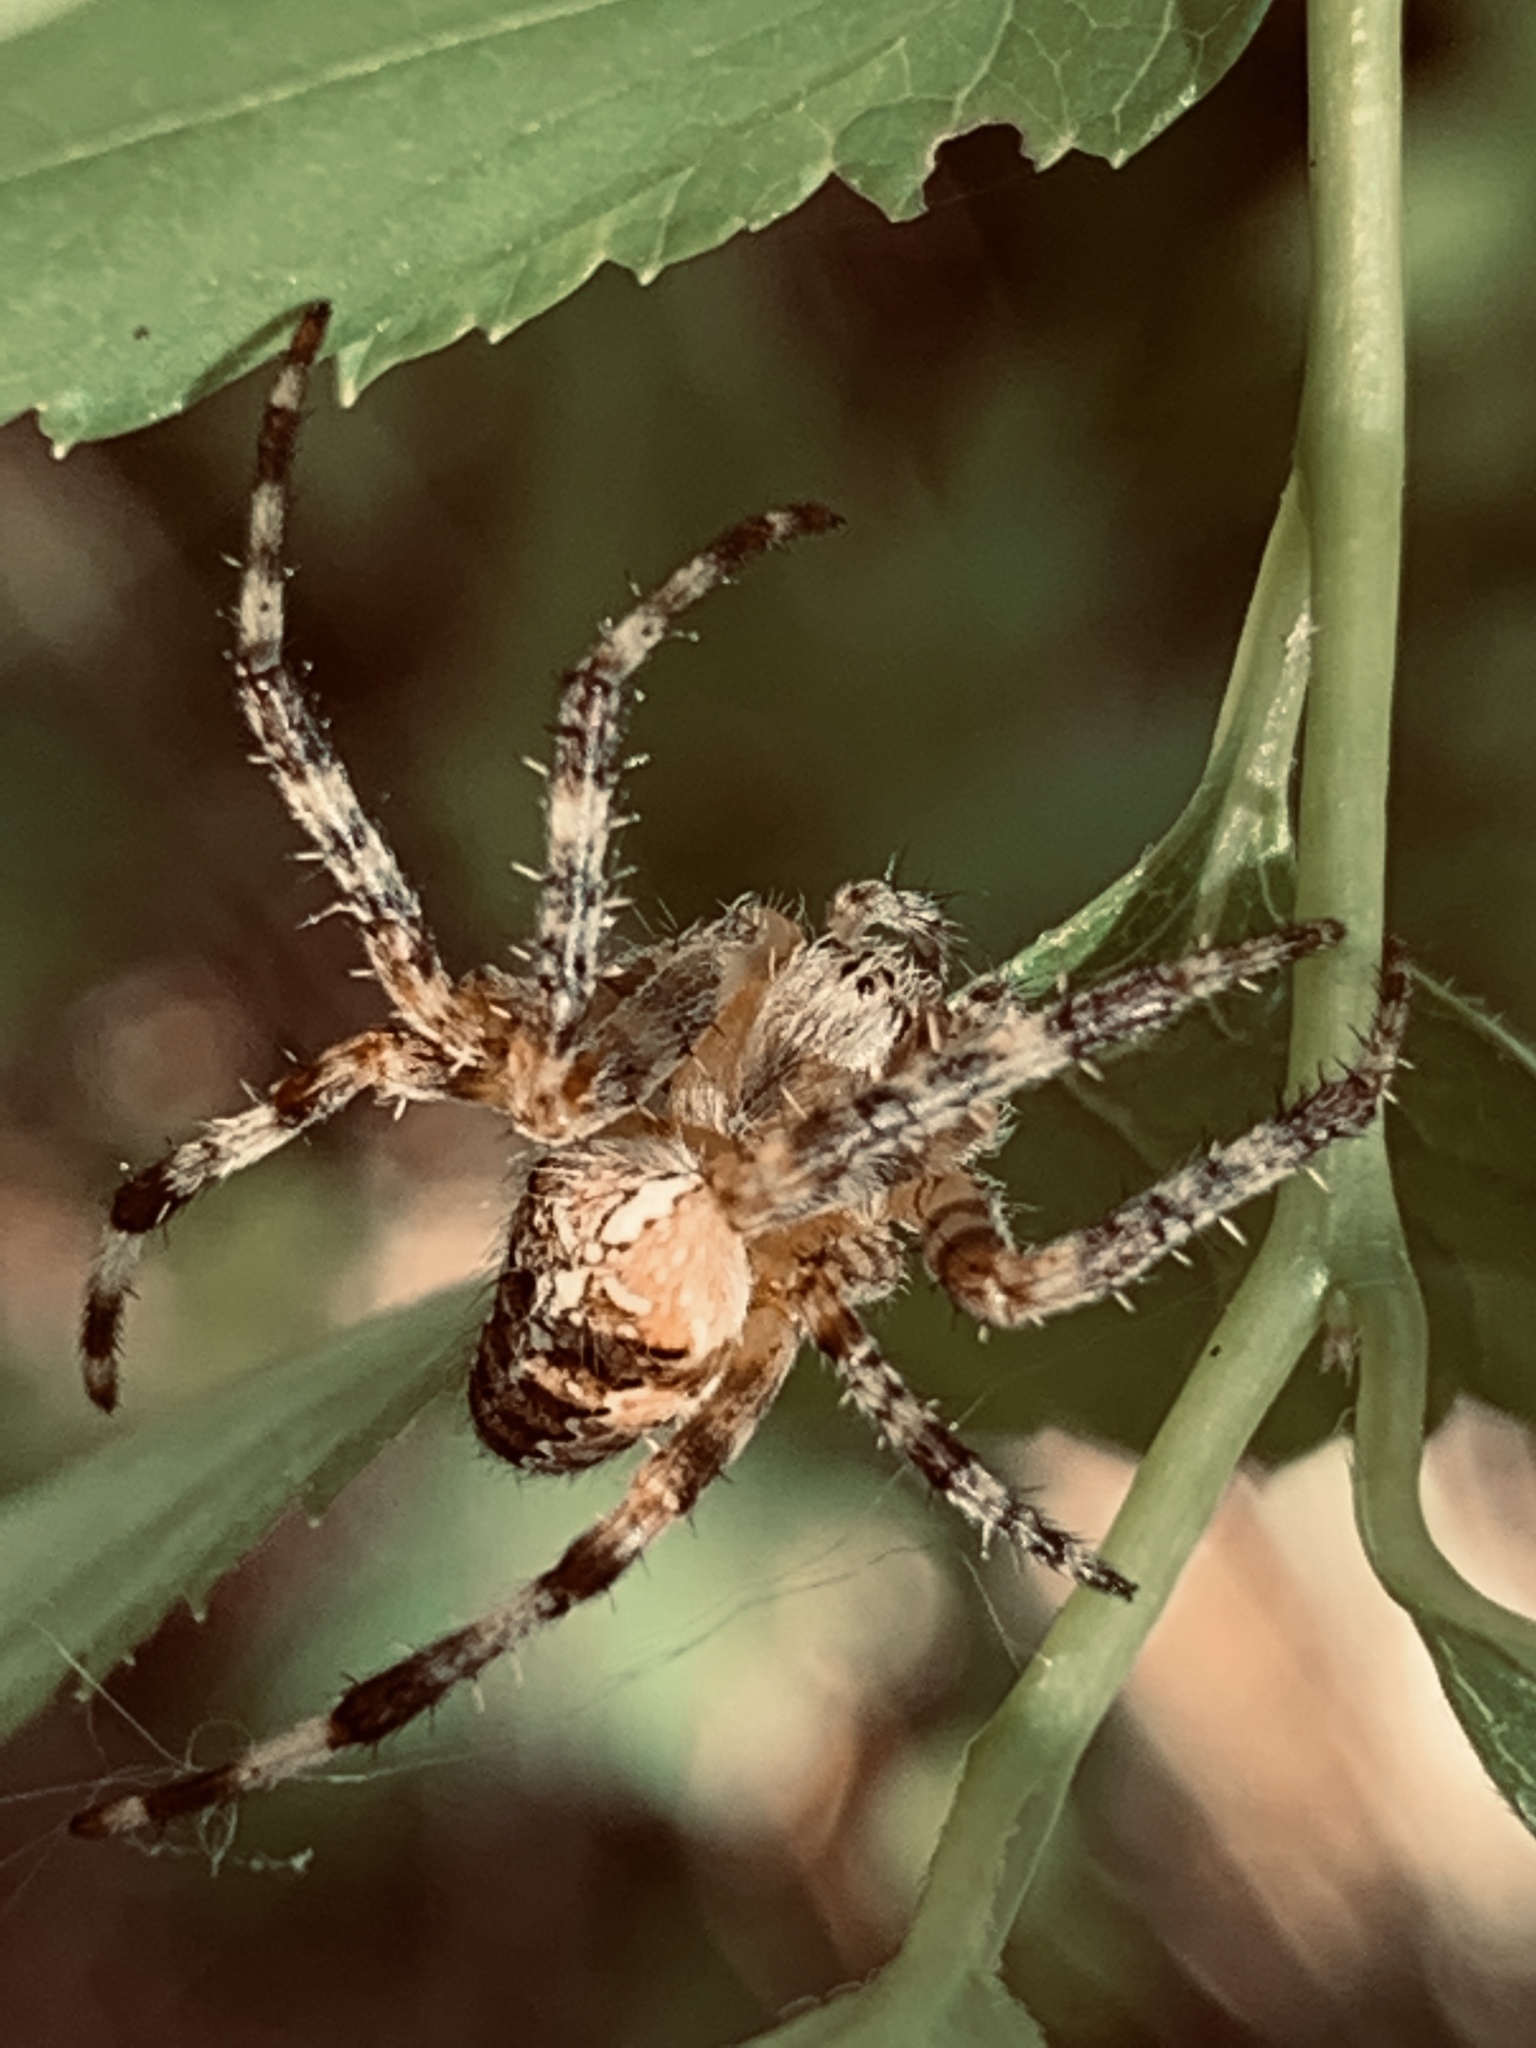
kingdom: Animalia
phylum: Arthropoda
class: Arachnida
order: Araneae
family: Araneidae
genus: Araneus
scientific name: Araneus diadematus
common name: Cross orbweaver
